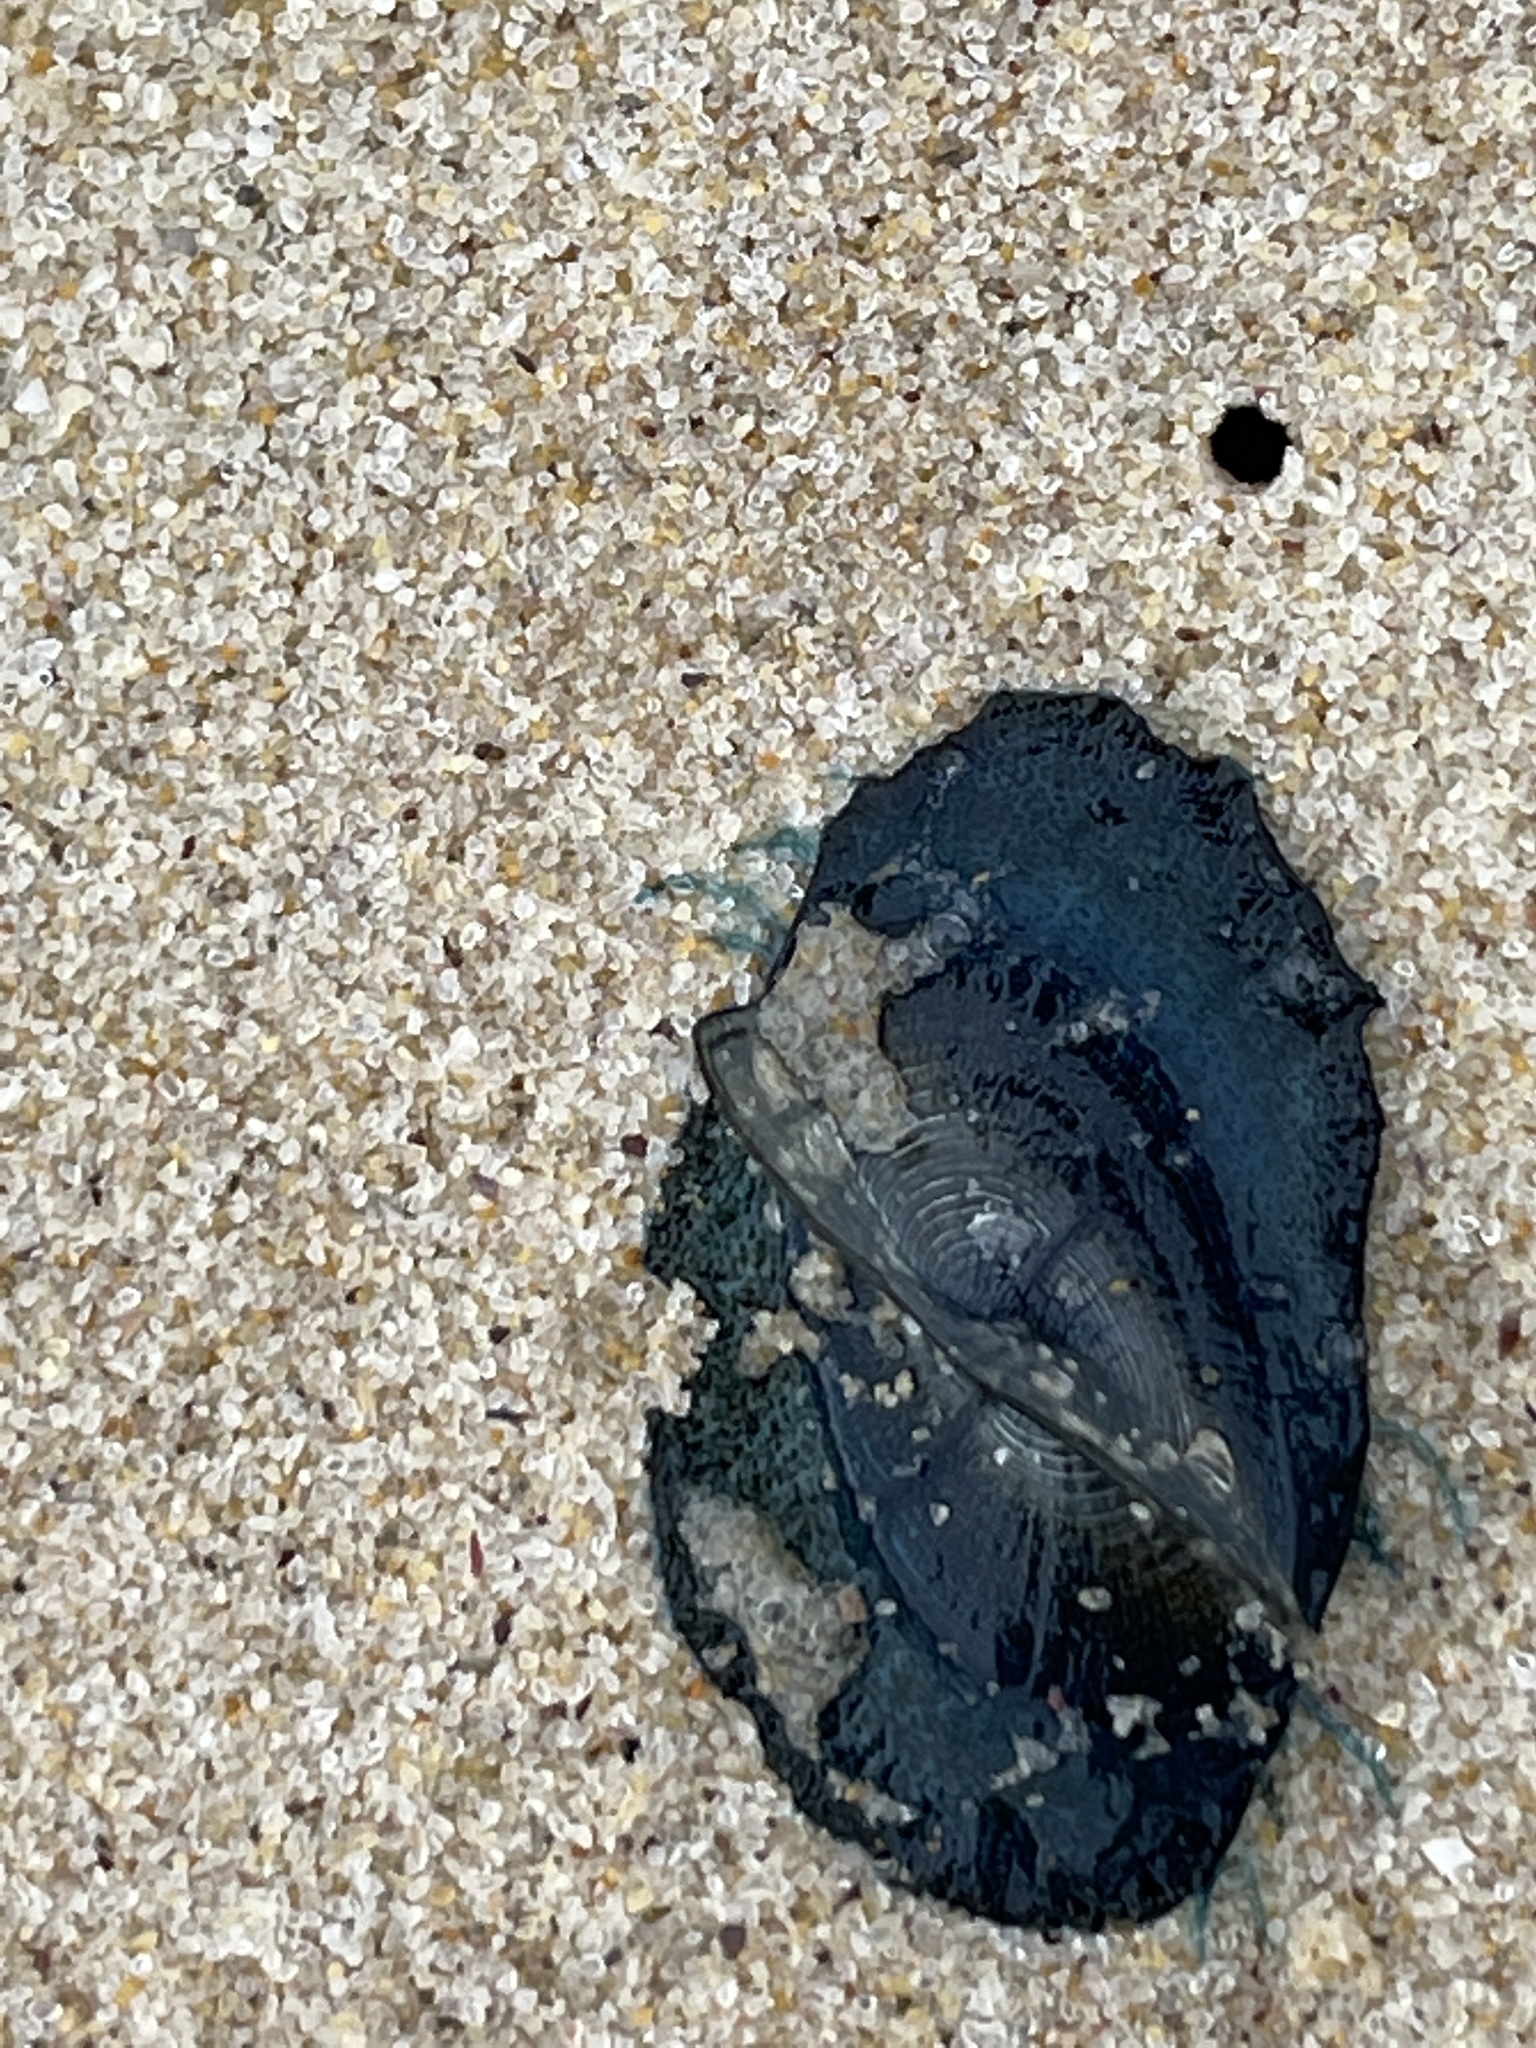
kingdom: Animalia
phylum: Cnidaria
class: Hydrozoa
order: Anthoathecata
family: Porpitidae
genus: Velella
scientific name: Velella velella
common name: By-the-wind-sailor
